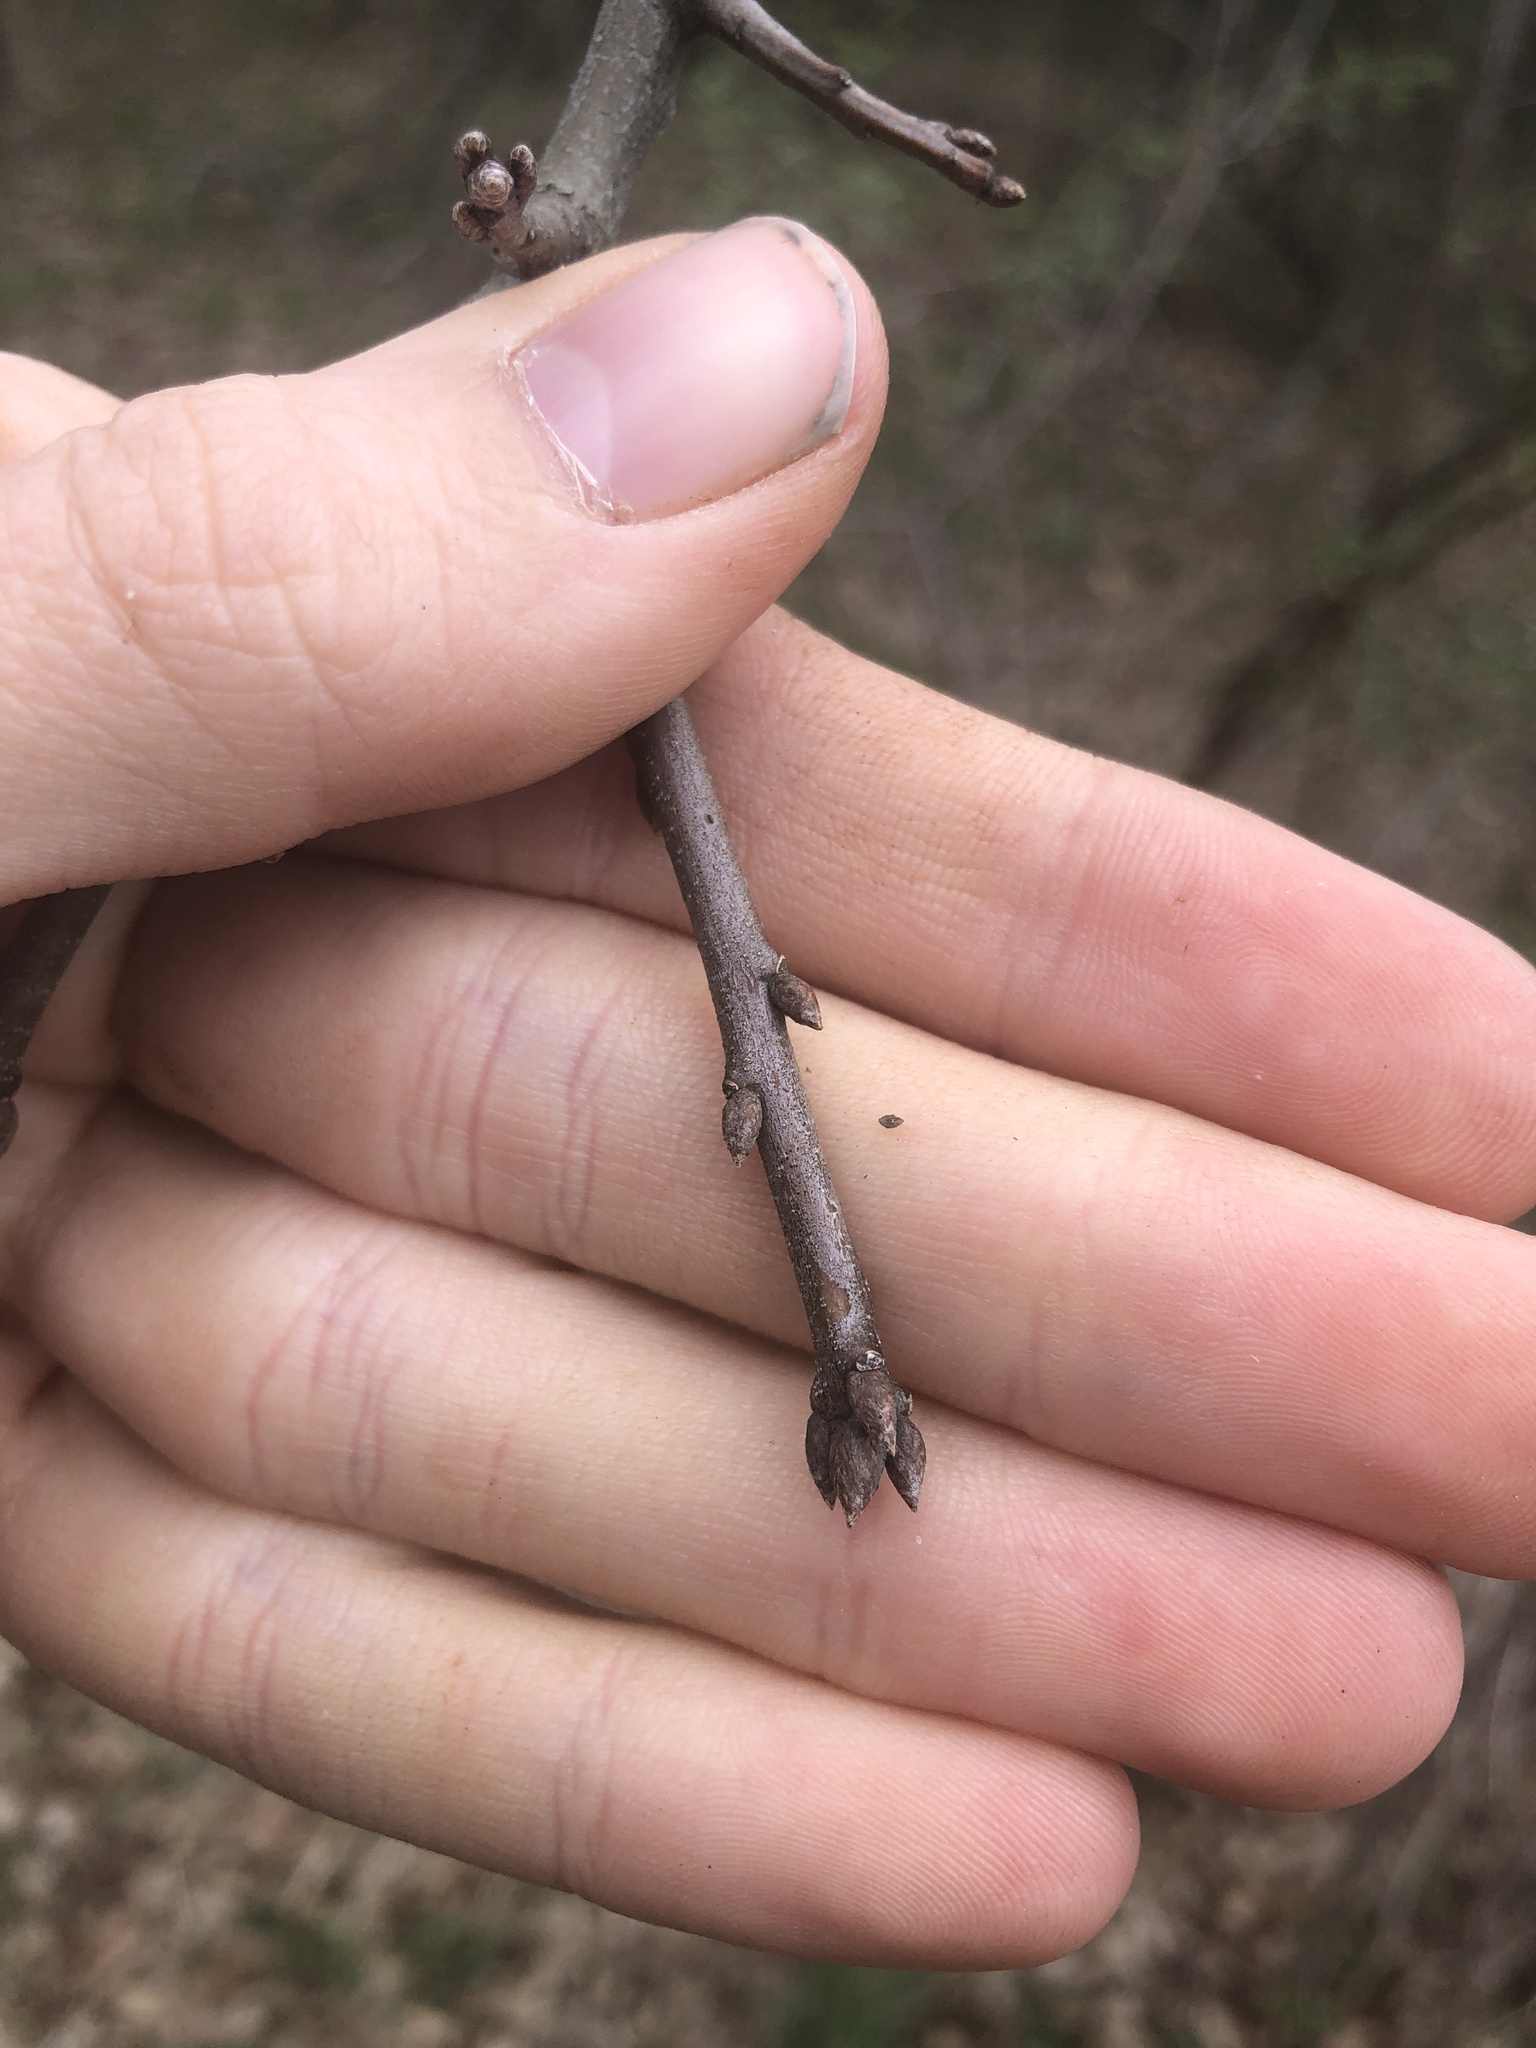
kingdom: Plantae
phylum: Tracheophyta
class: Magnoliopsida
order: Fagales
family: Fagaceae
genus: Quercus
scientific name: Quercus palustris
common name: Pin oak
